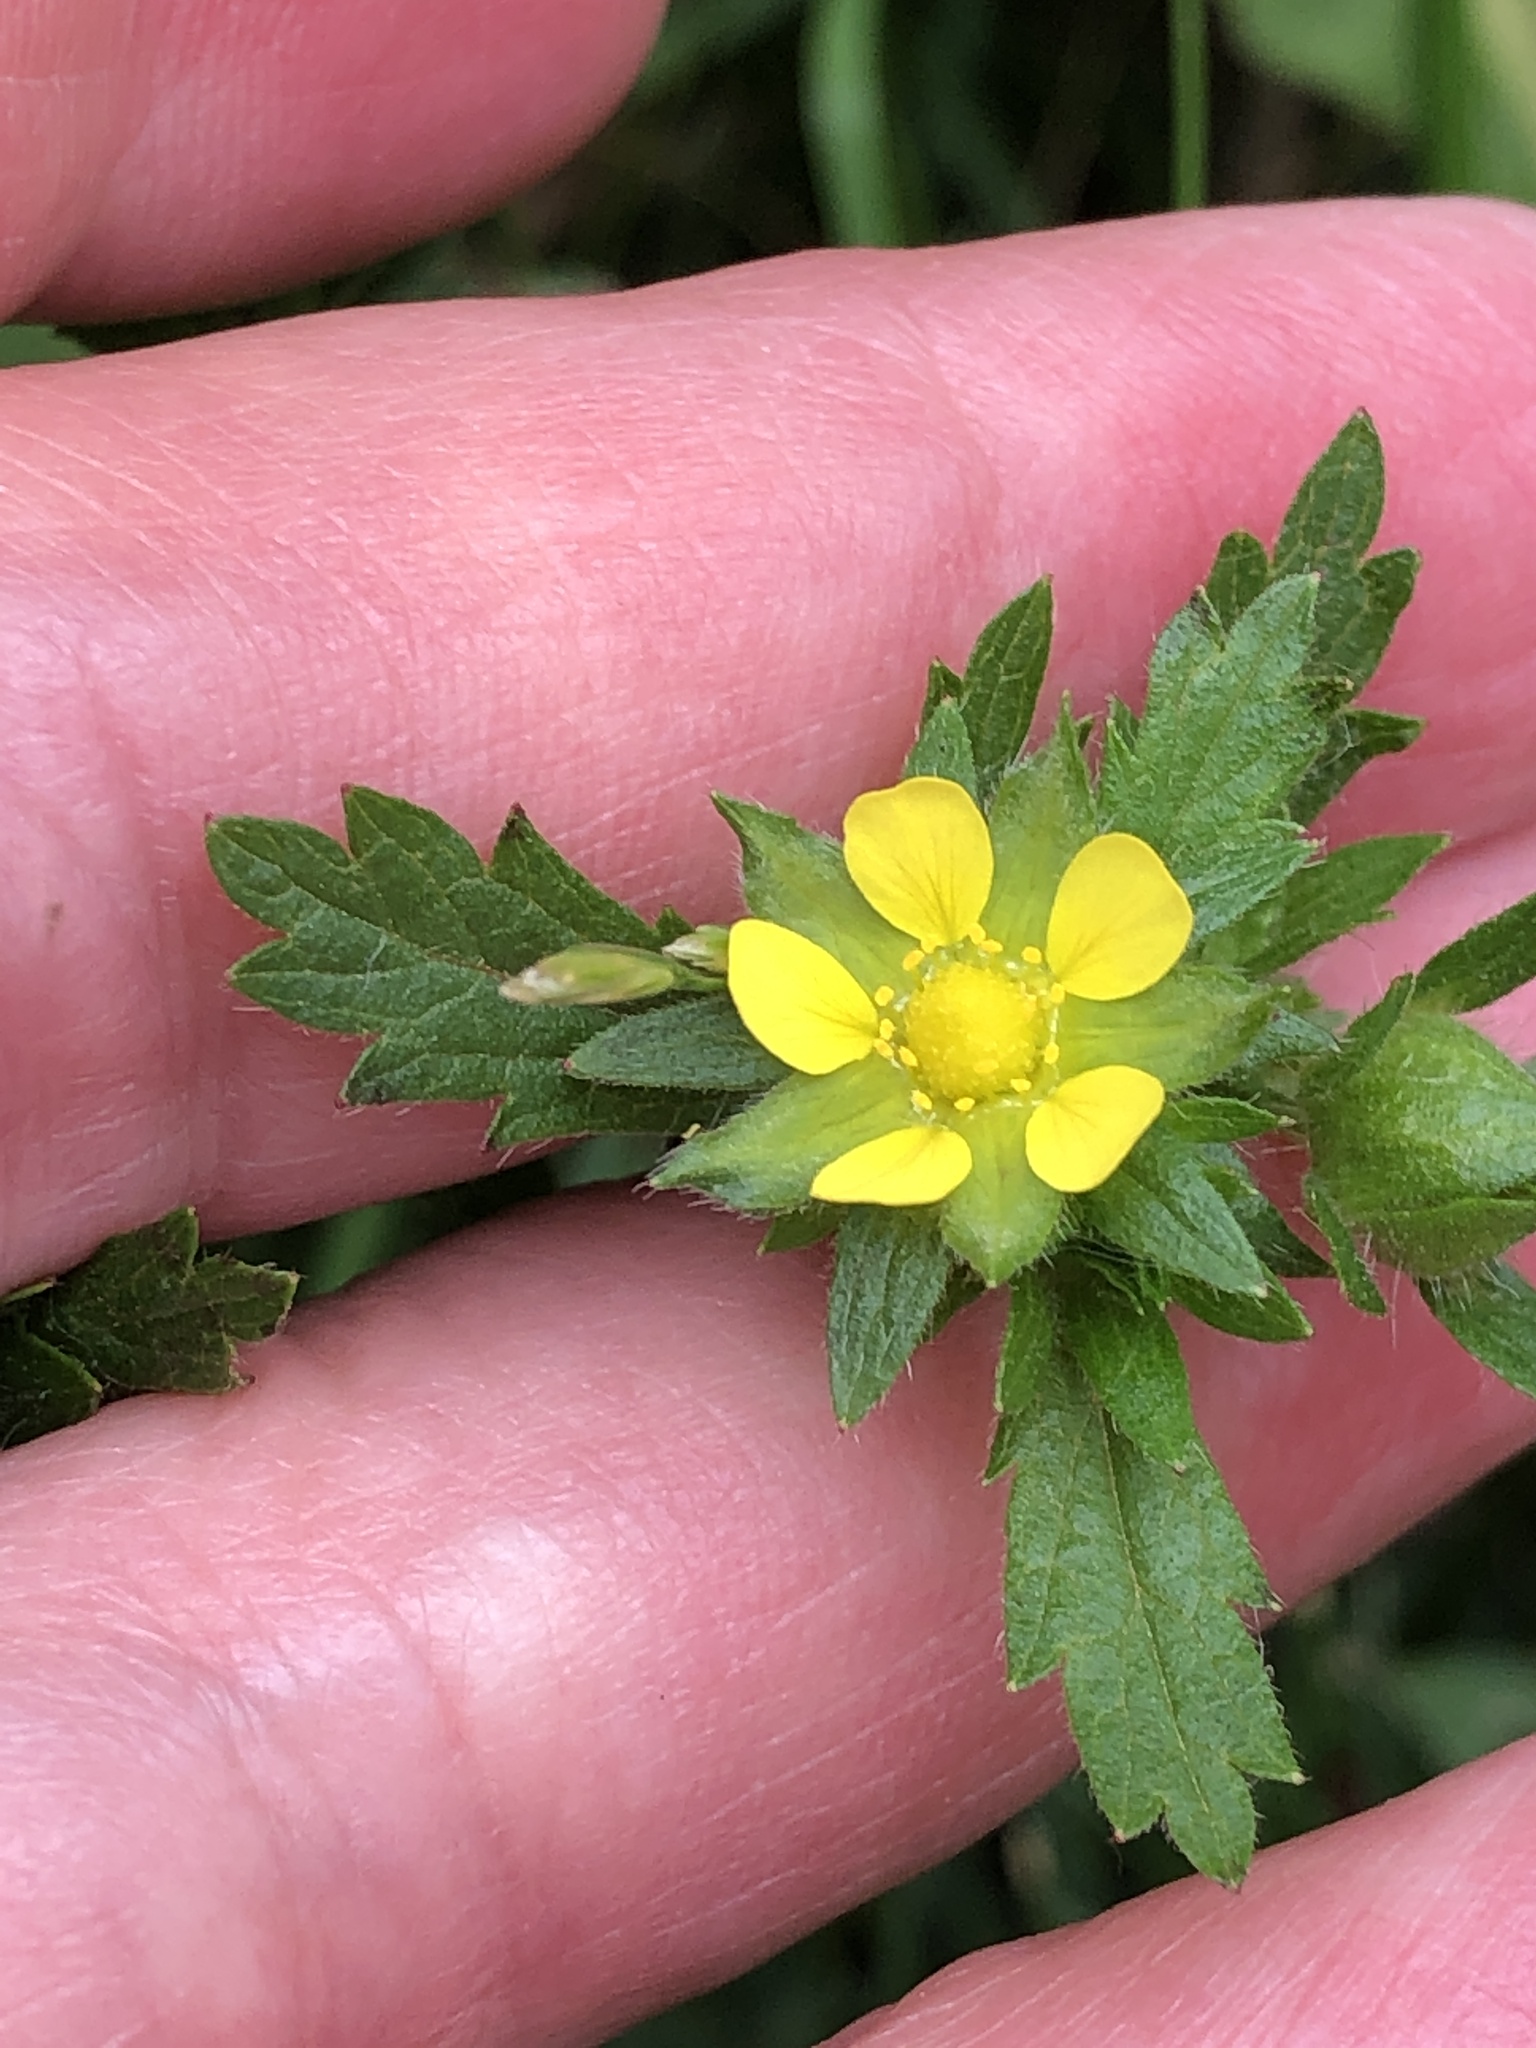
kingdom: Plantae
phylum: Tracheophyta
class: Magnoliopsida
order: Rosales
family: Rosaceae
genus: Potentilla
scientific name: Potentilla norvegica
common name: Ternate-leaved cinquefoil
